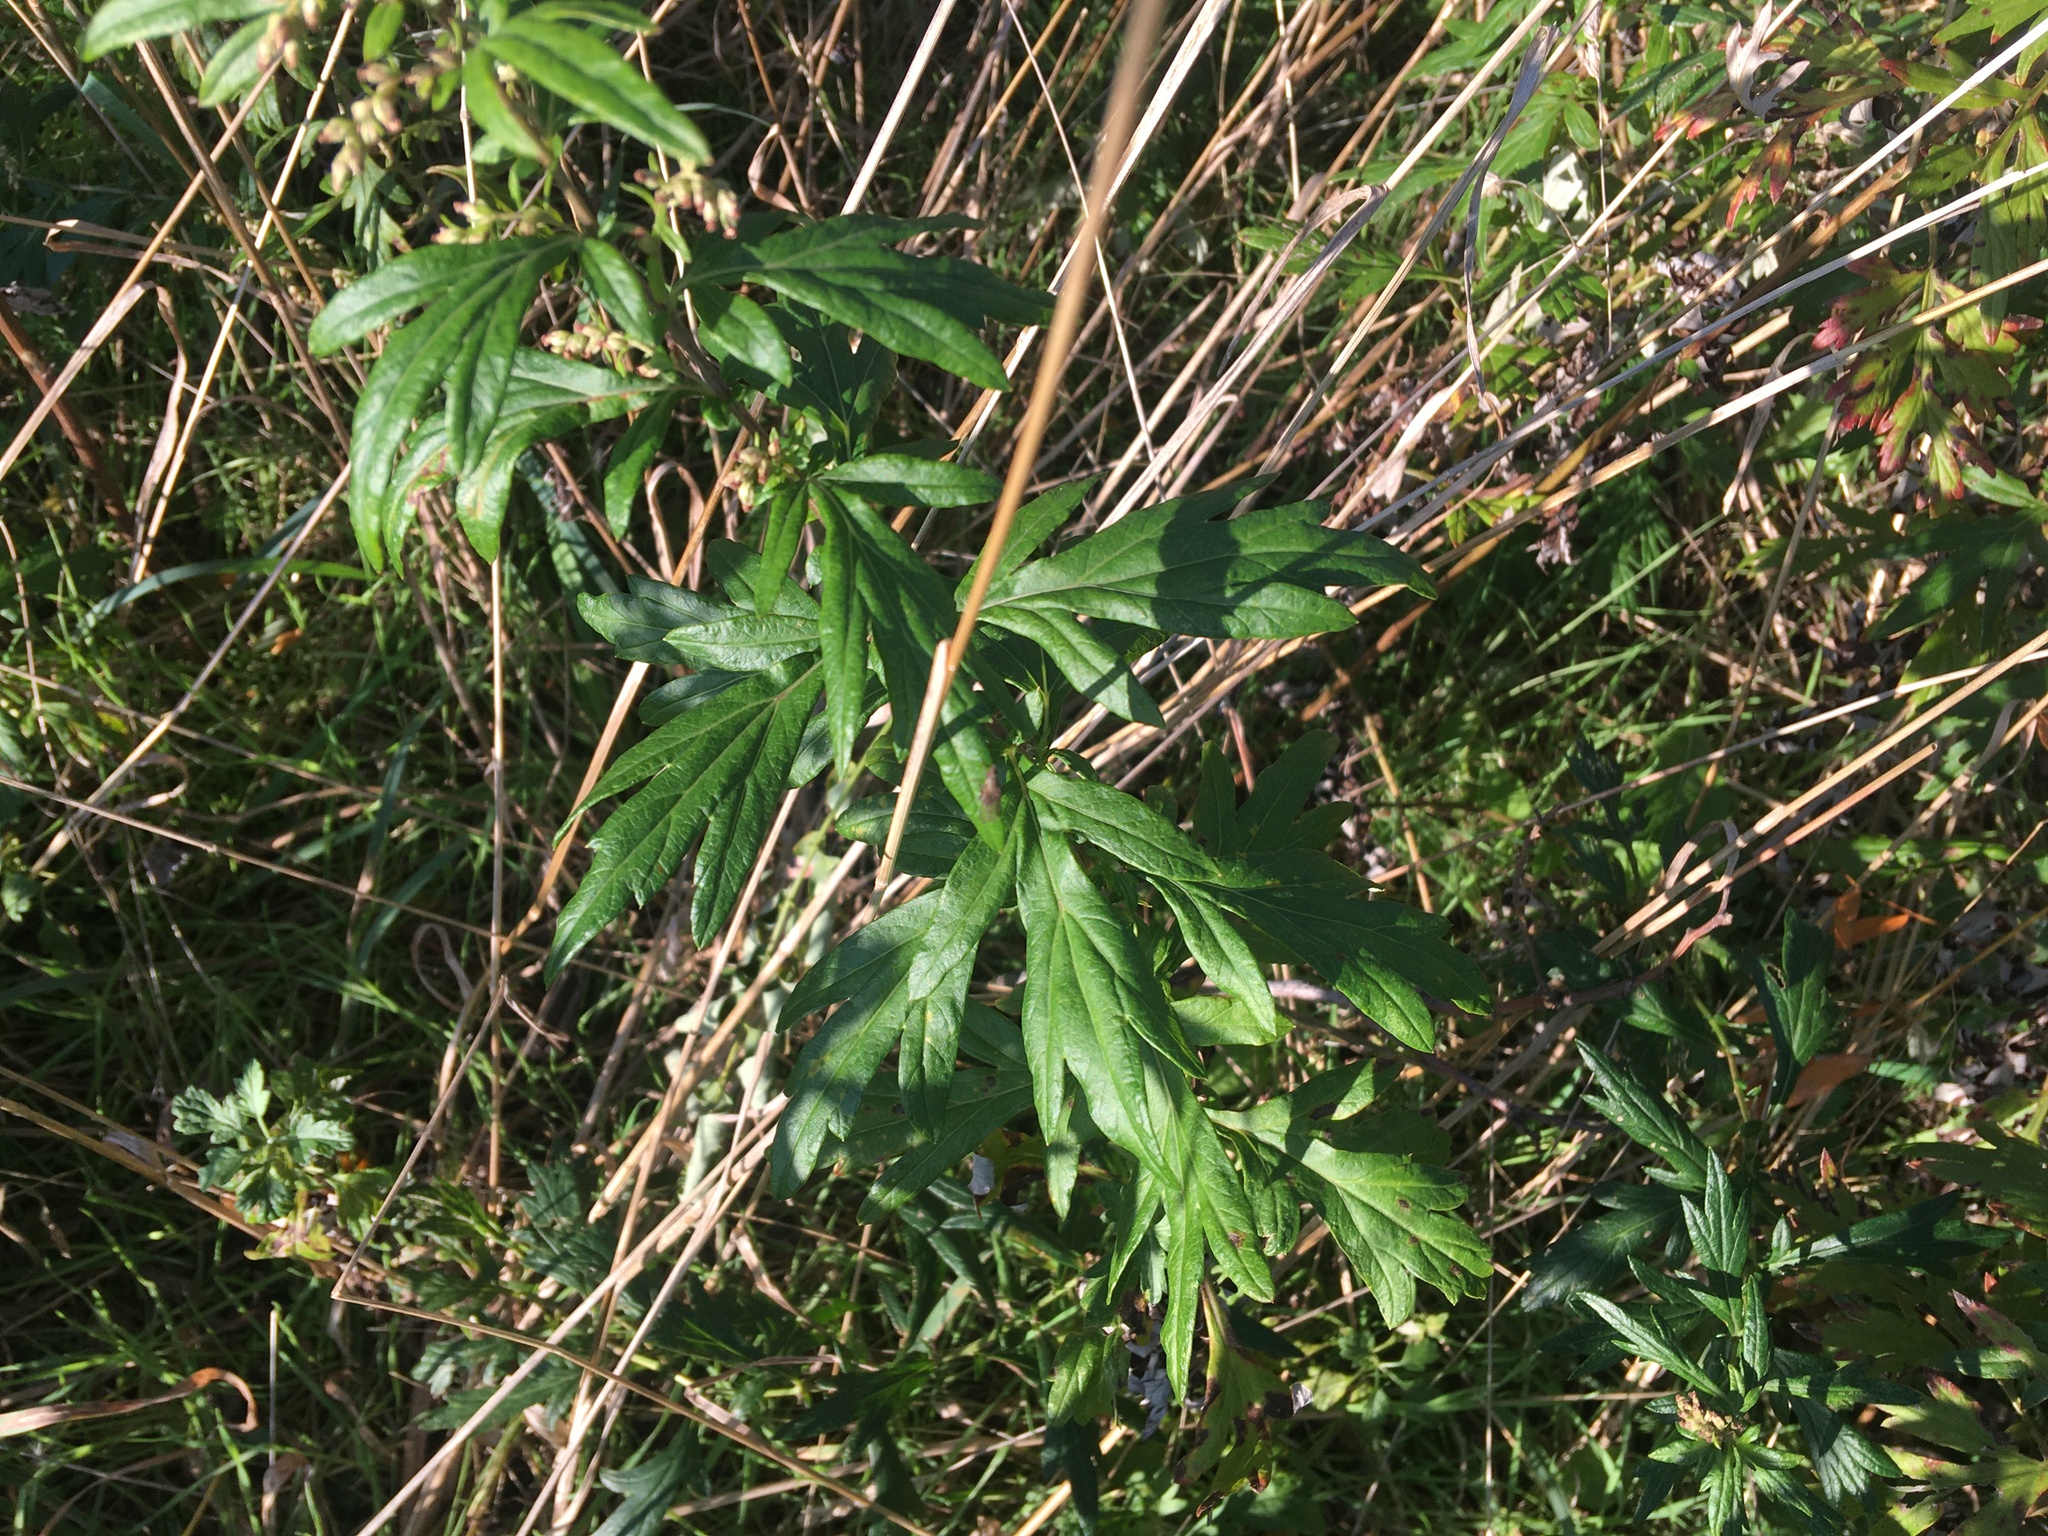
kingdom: Plantae
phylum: Tracheophyta
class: Magnoliopsida
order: Asterales
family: Asteraceae
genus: Artemisia
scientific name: Artemisia vulgaris
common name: Mugwort
